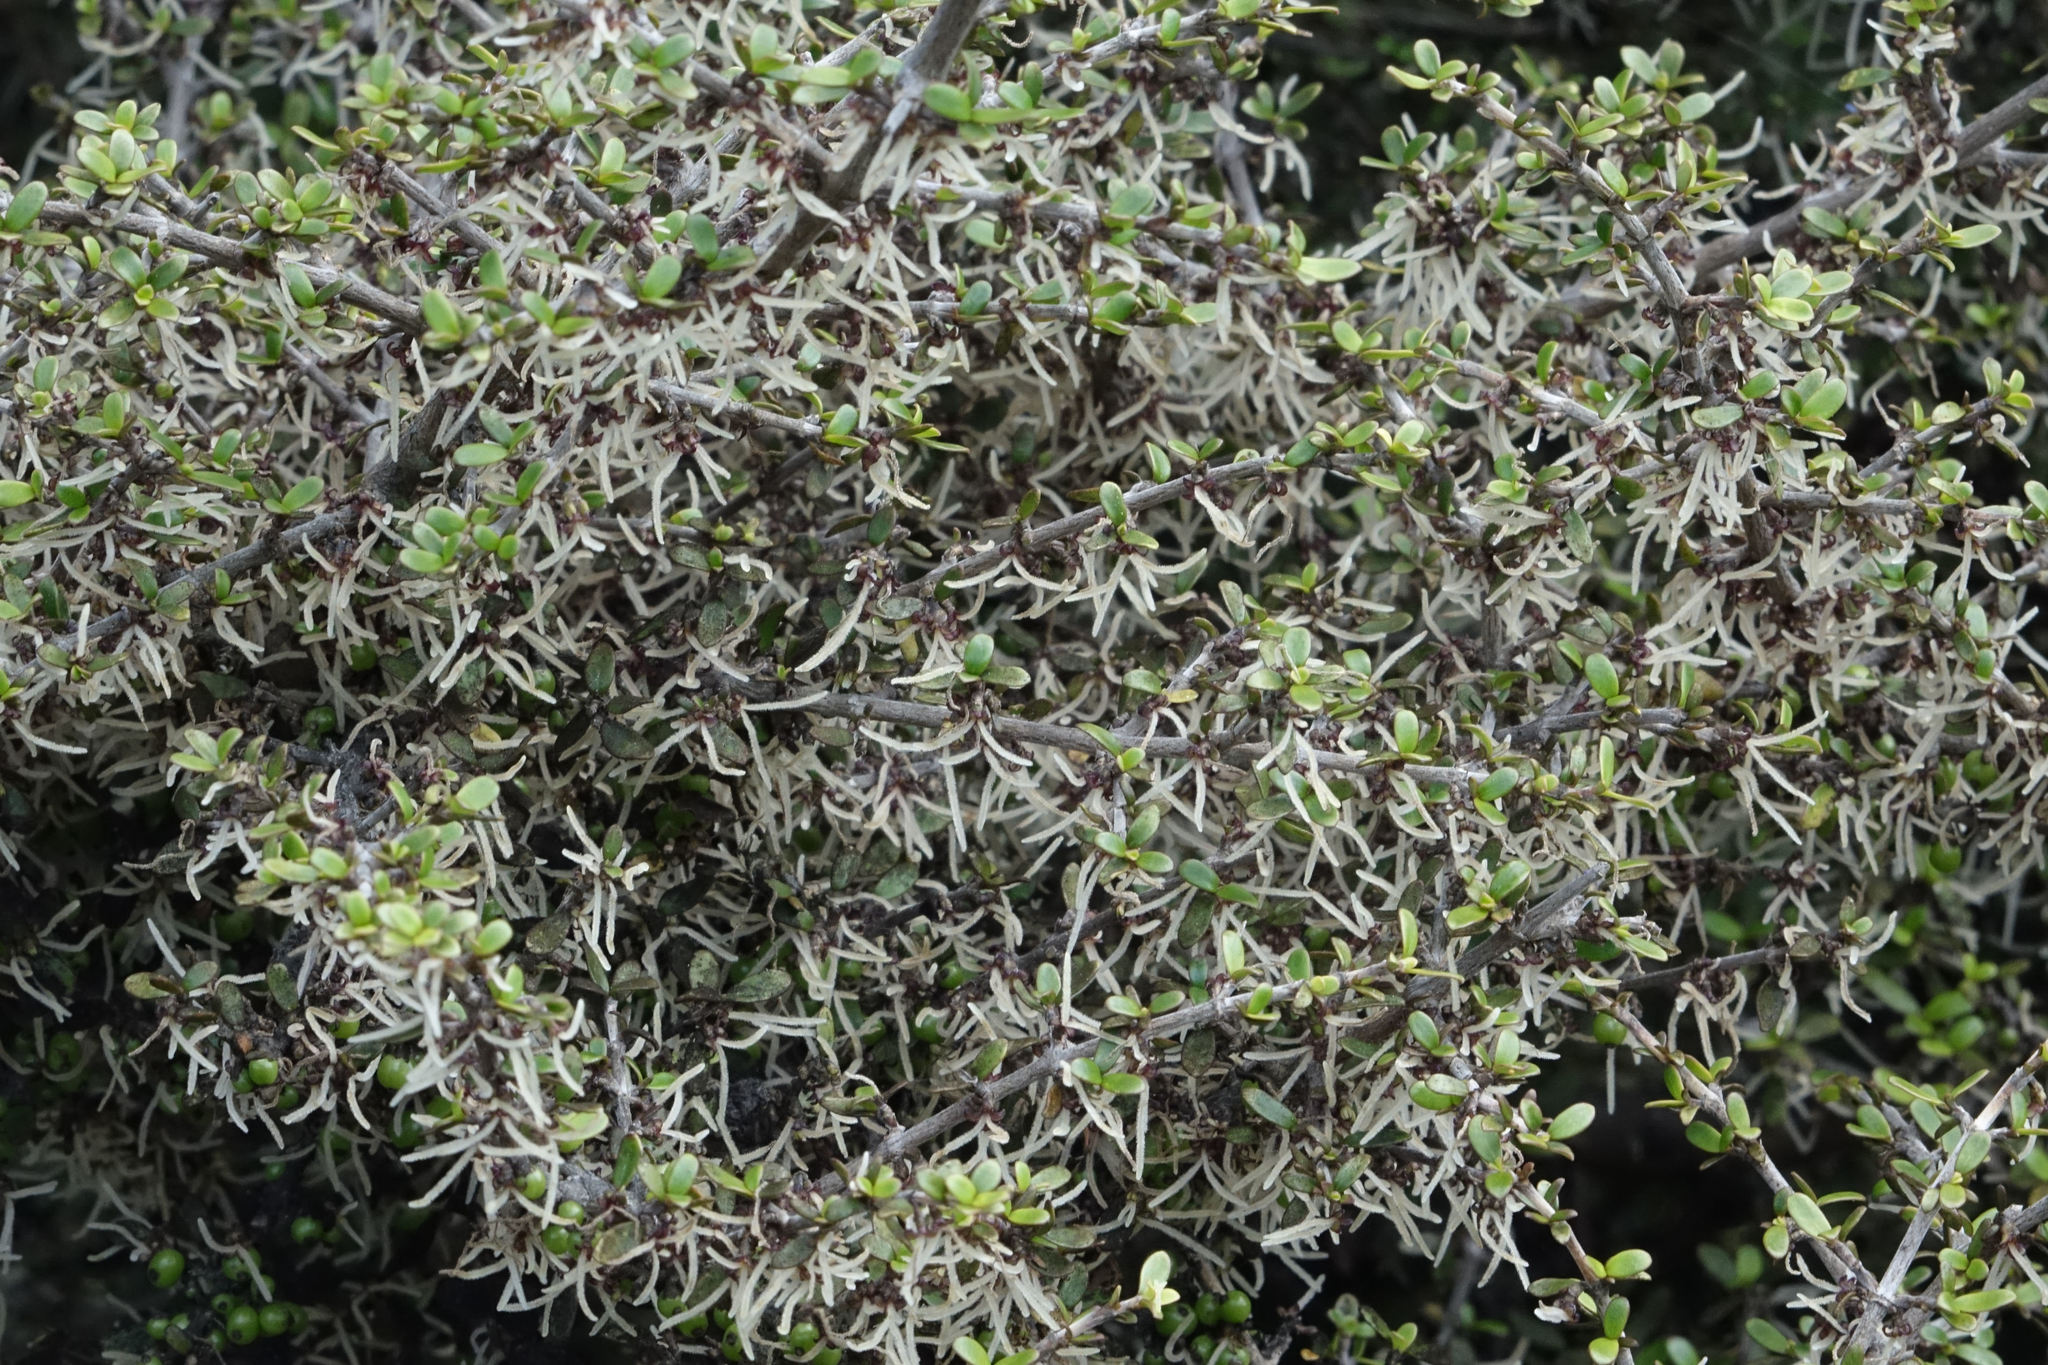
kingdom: Plantae
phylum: Tracheophyta
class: Magnoliopsida
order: Gentianales
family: Rubiaceae
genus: Coprosma
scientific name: Coprosma dumosa
